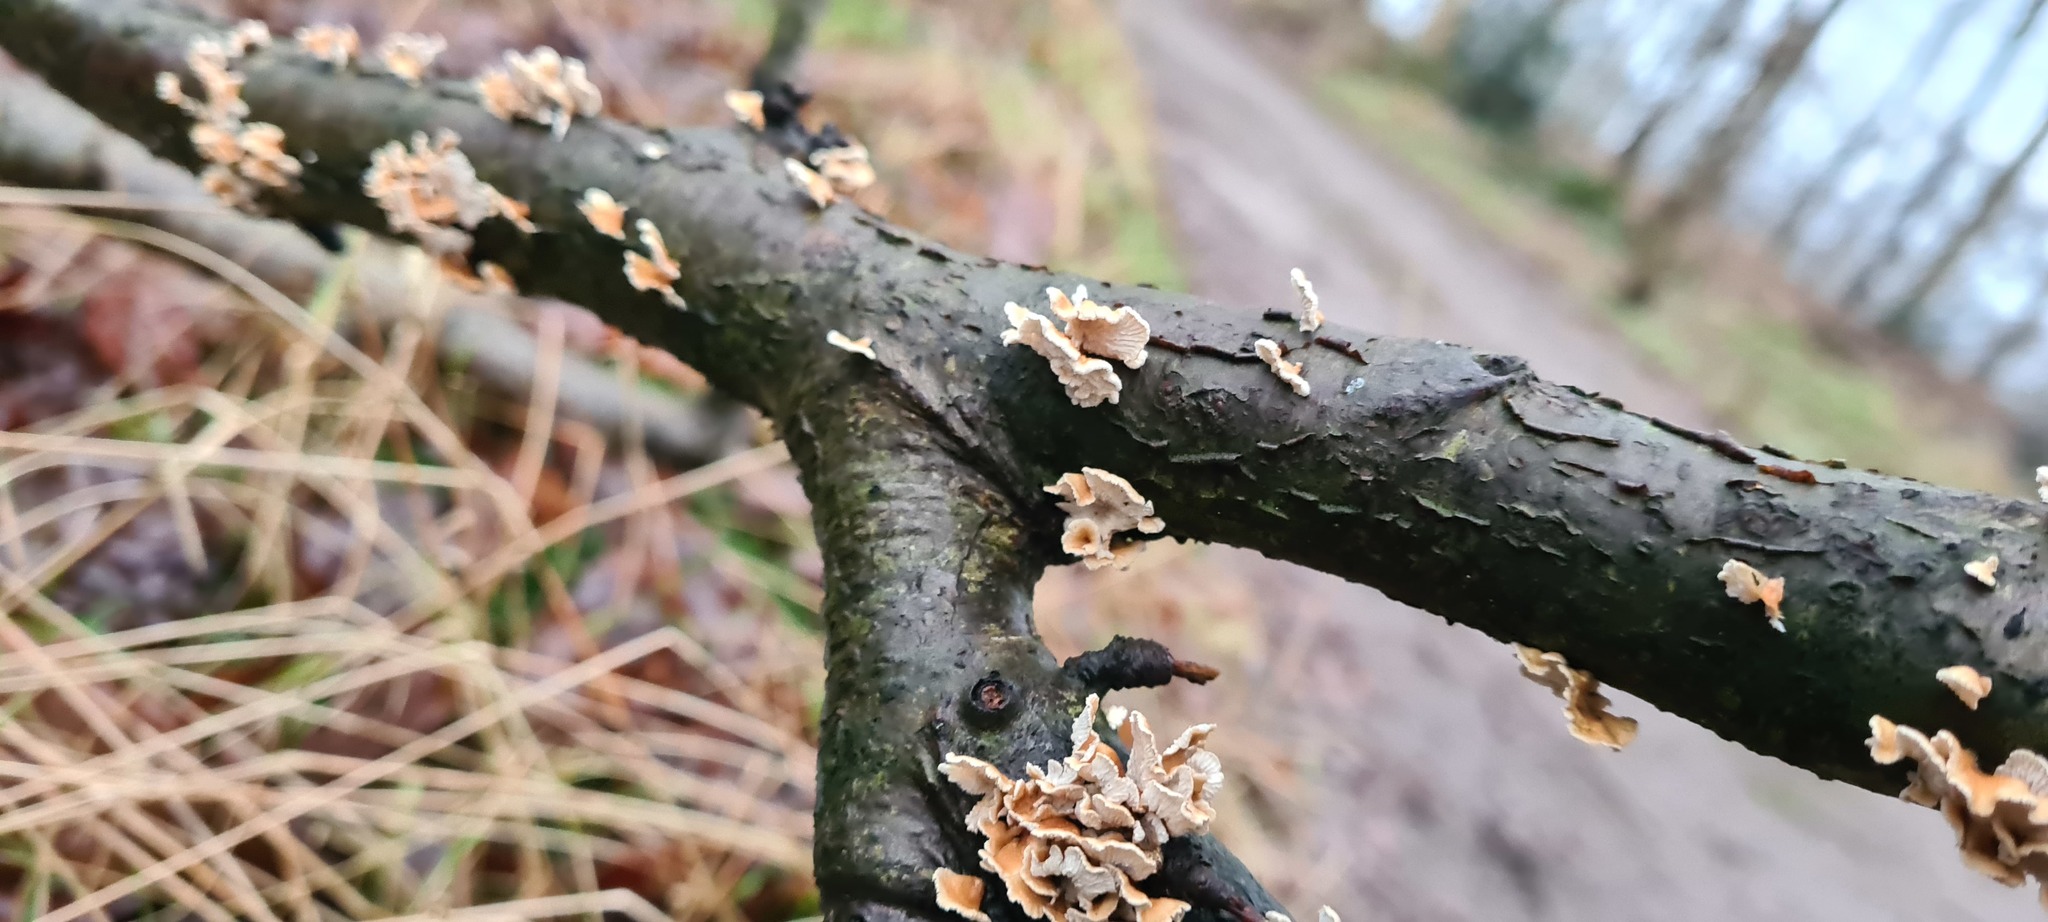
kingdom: Fungi
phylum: Basidiomycota
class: Agaricomycetes
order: Amylocorticiales
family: Amylocorticiaceae
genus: Plicaturopsis
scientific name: Plicaturopsis crispa
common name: Crimped gill
